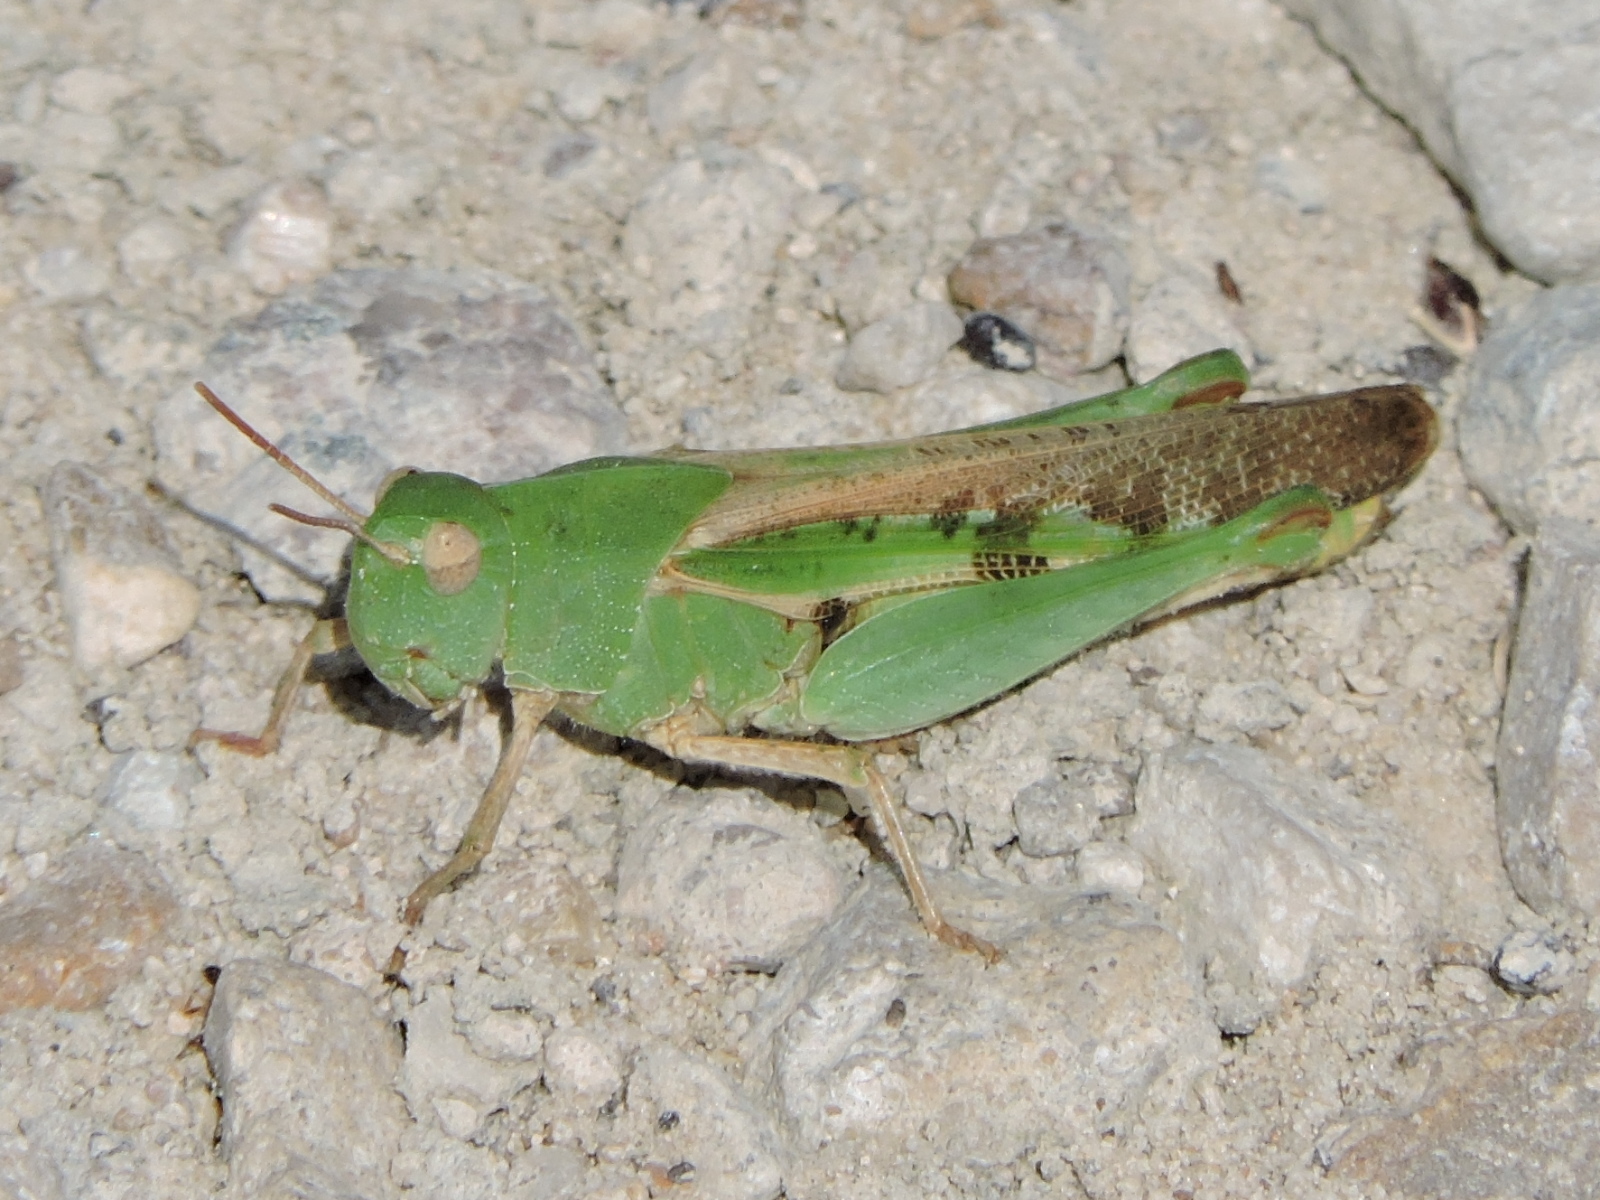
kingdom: Animalia
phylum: Arthropoda
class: Insecta
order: Orthoptera
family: Acrididae
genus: Chortophaga
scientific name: Chortophaga viridifasciata
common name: Green-striped grasshopper
